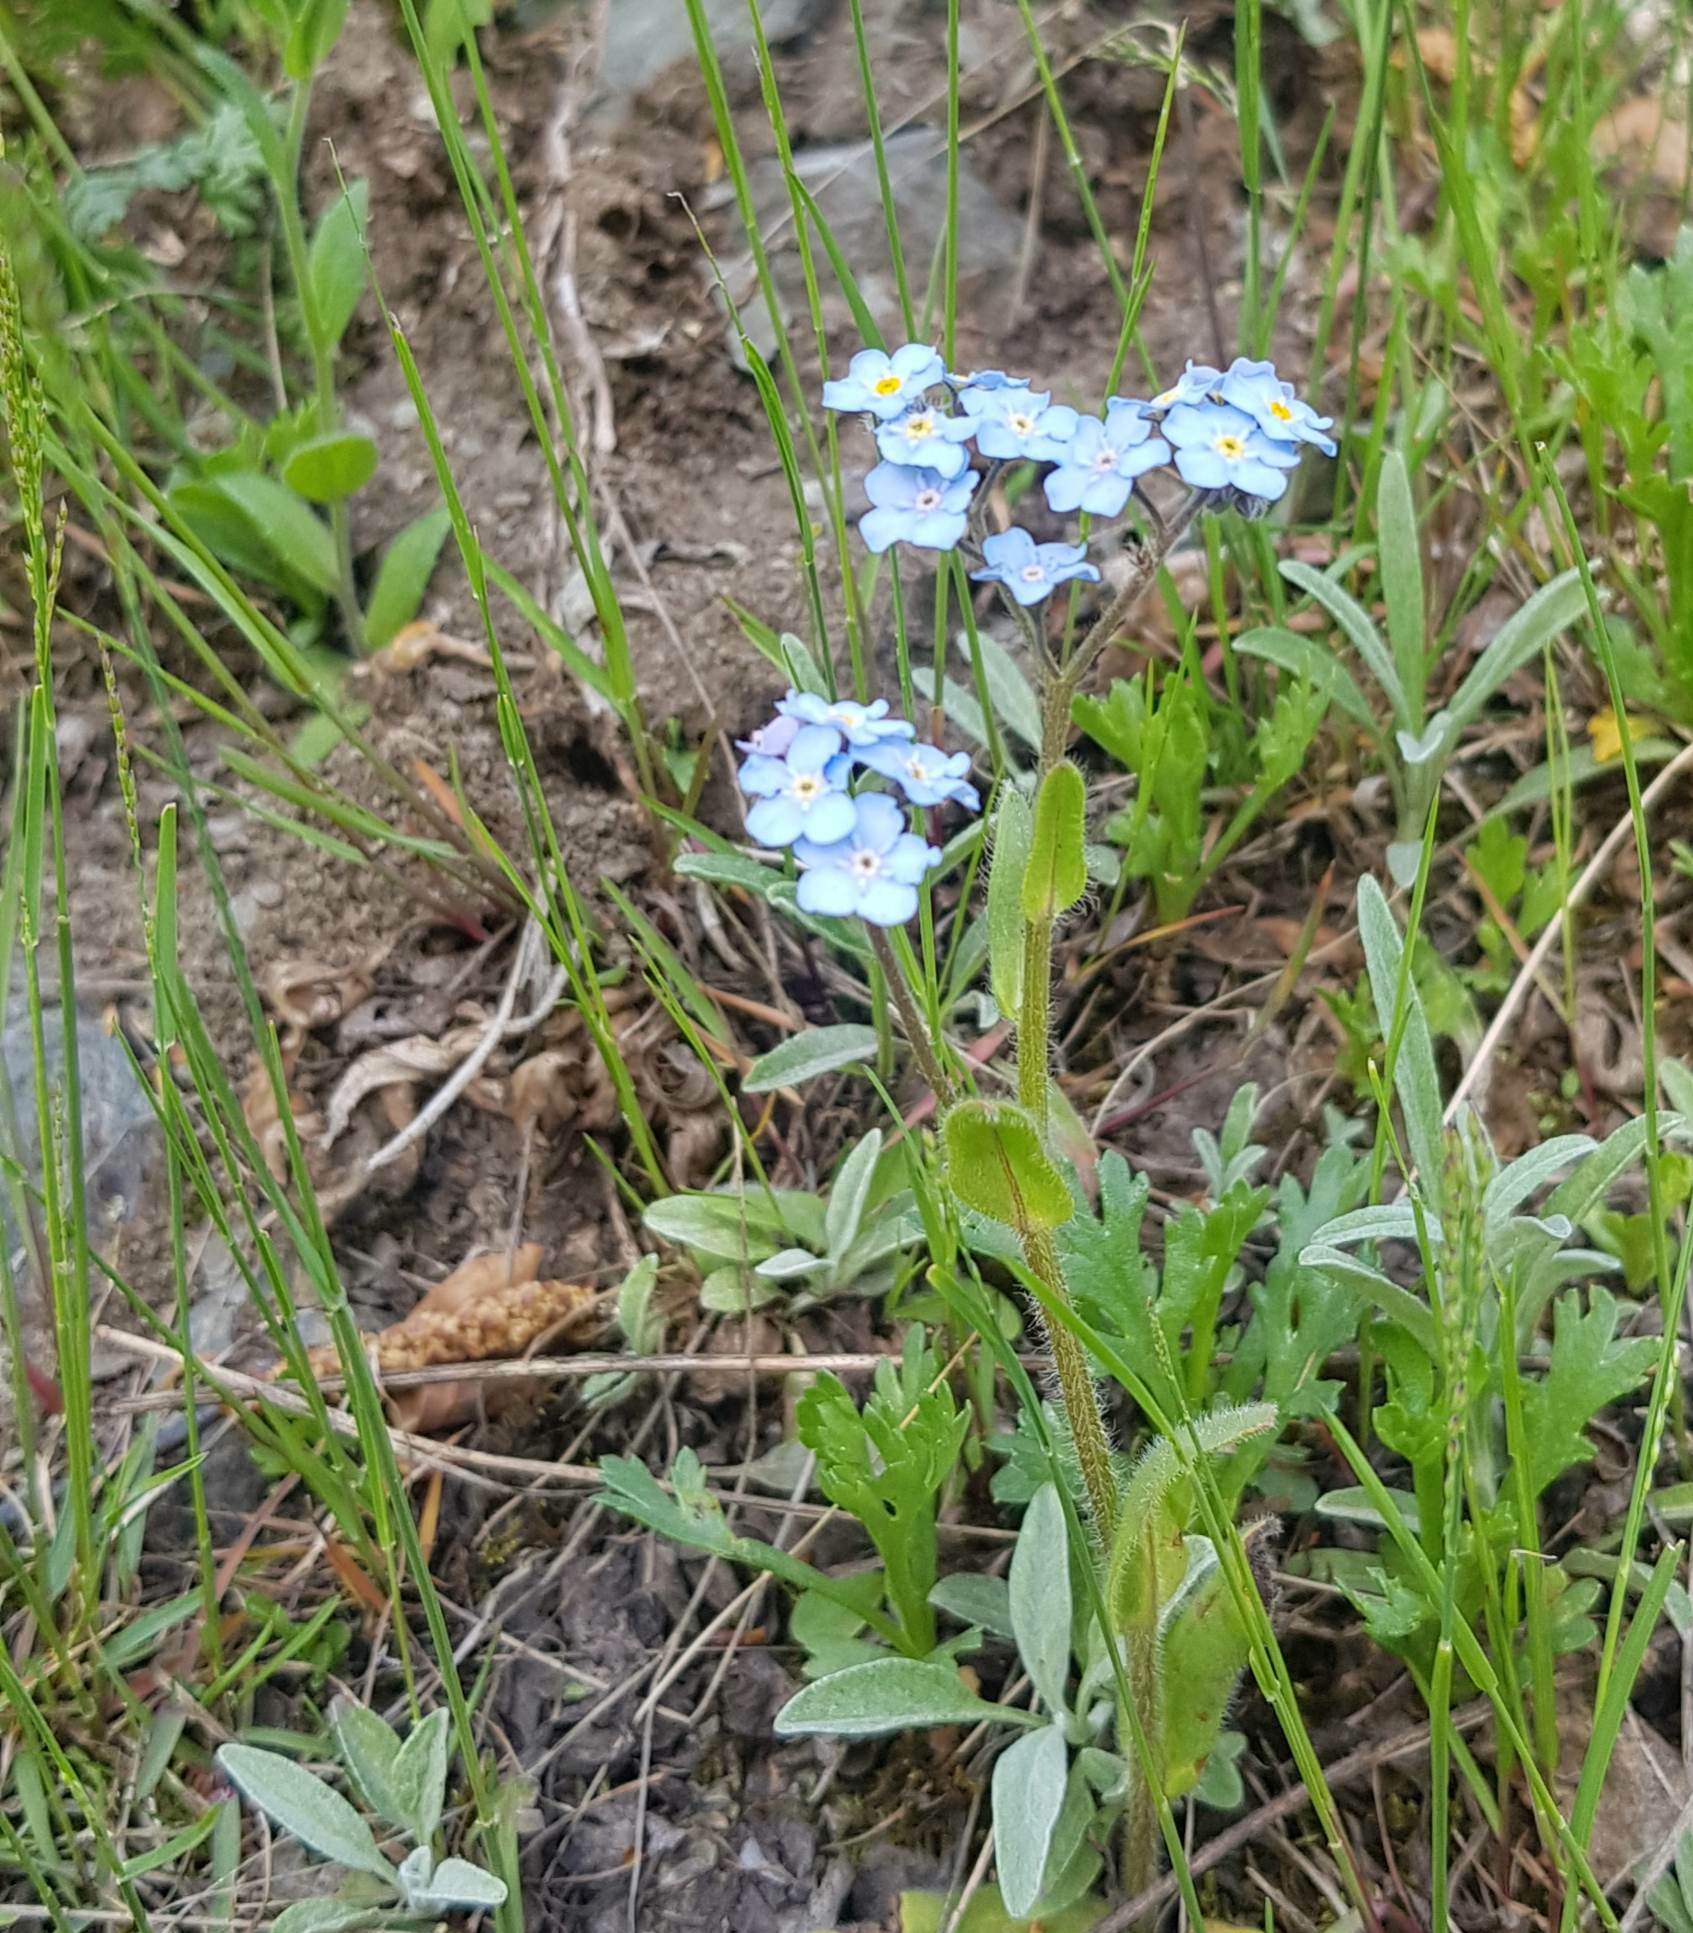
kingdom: Plantae
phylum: Tracheophyta
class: Magnoliopsida
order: Boraginales
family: Boraginaceae
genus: Myosotis
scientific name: Myosotis alpestris
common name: Alpine forget-me-not
